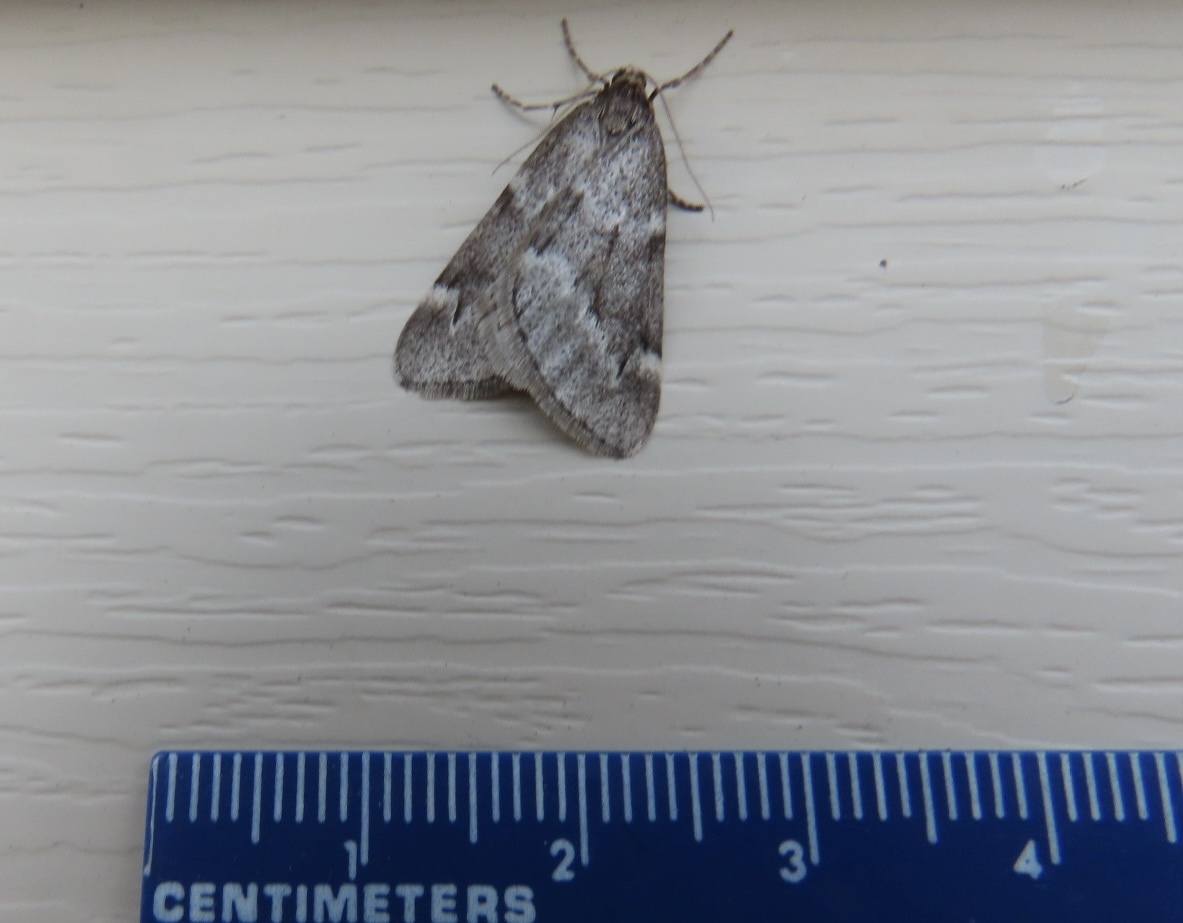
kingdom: Animalia
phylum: Arthropoda
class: Insecta
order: Lepidoptera
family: Geometridae
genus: Alsophila
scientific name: Alsophila pometaria
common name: Fall cankerworm
